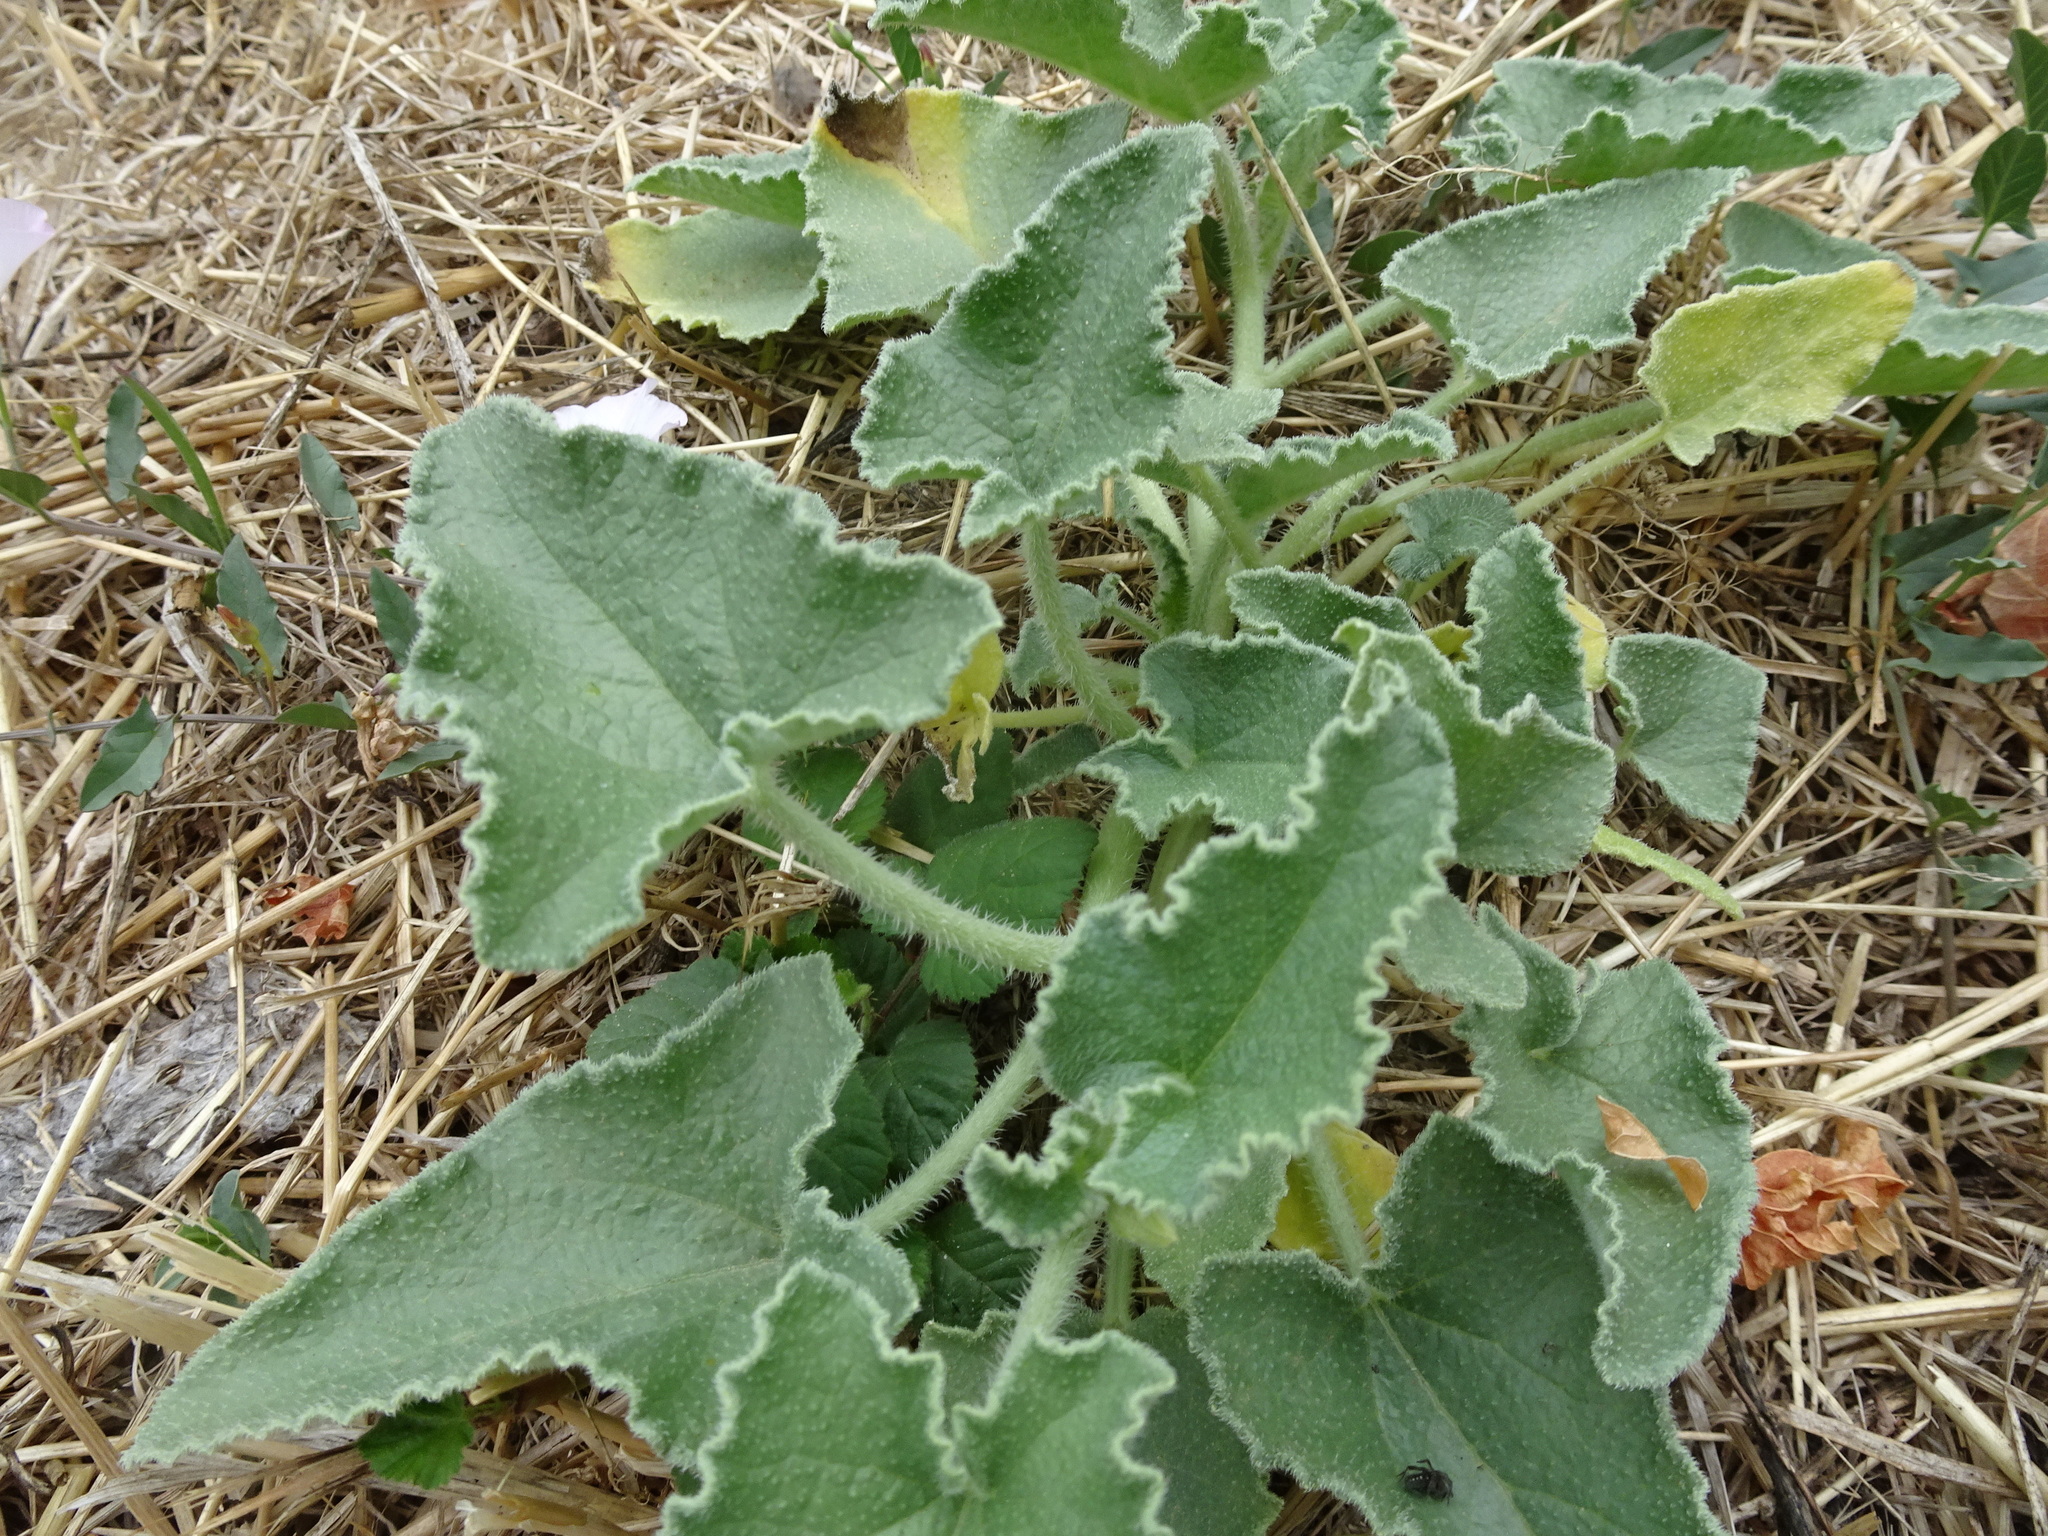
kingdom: Plantae
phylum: Tracheophyta
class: Magnoliopsida
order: Cucurbitales
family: Cucurbitaceae
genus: Ecballium
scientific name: Ecballium elaterium
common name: Squirting cucumber
